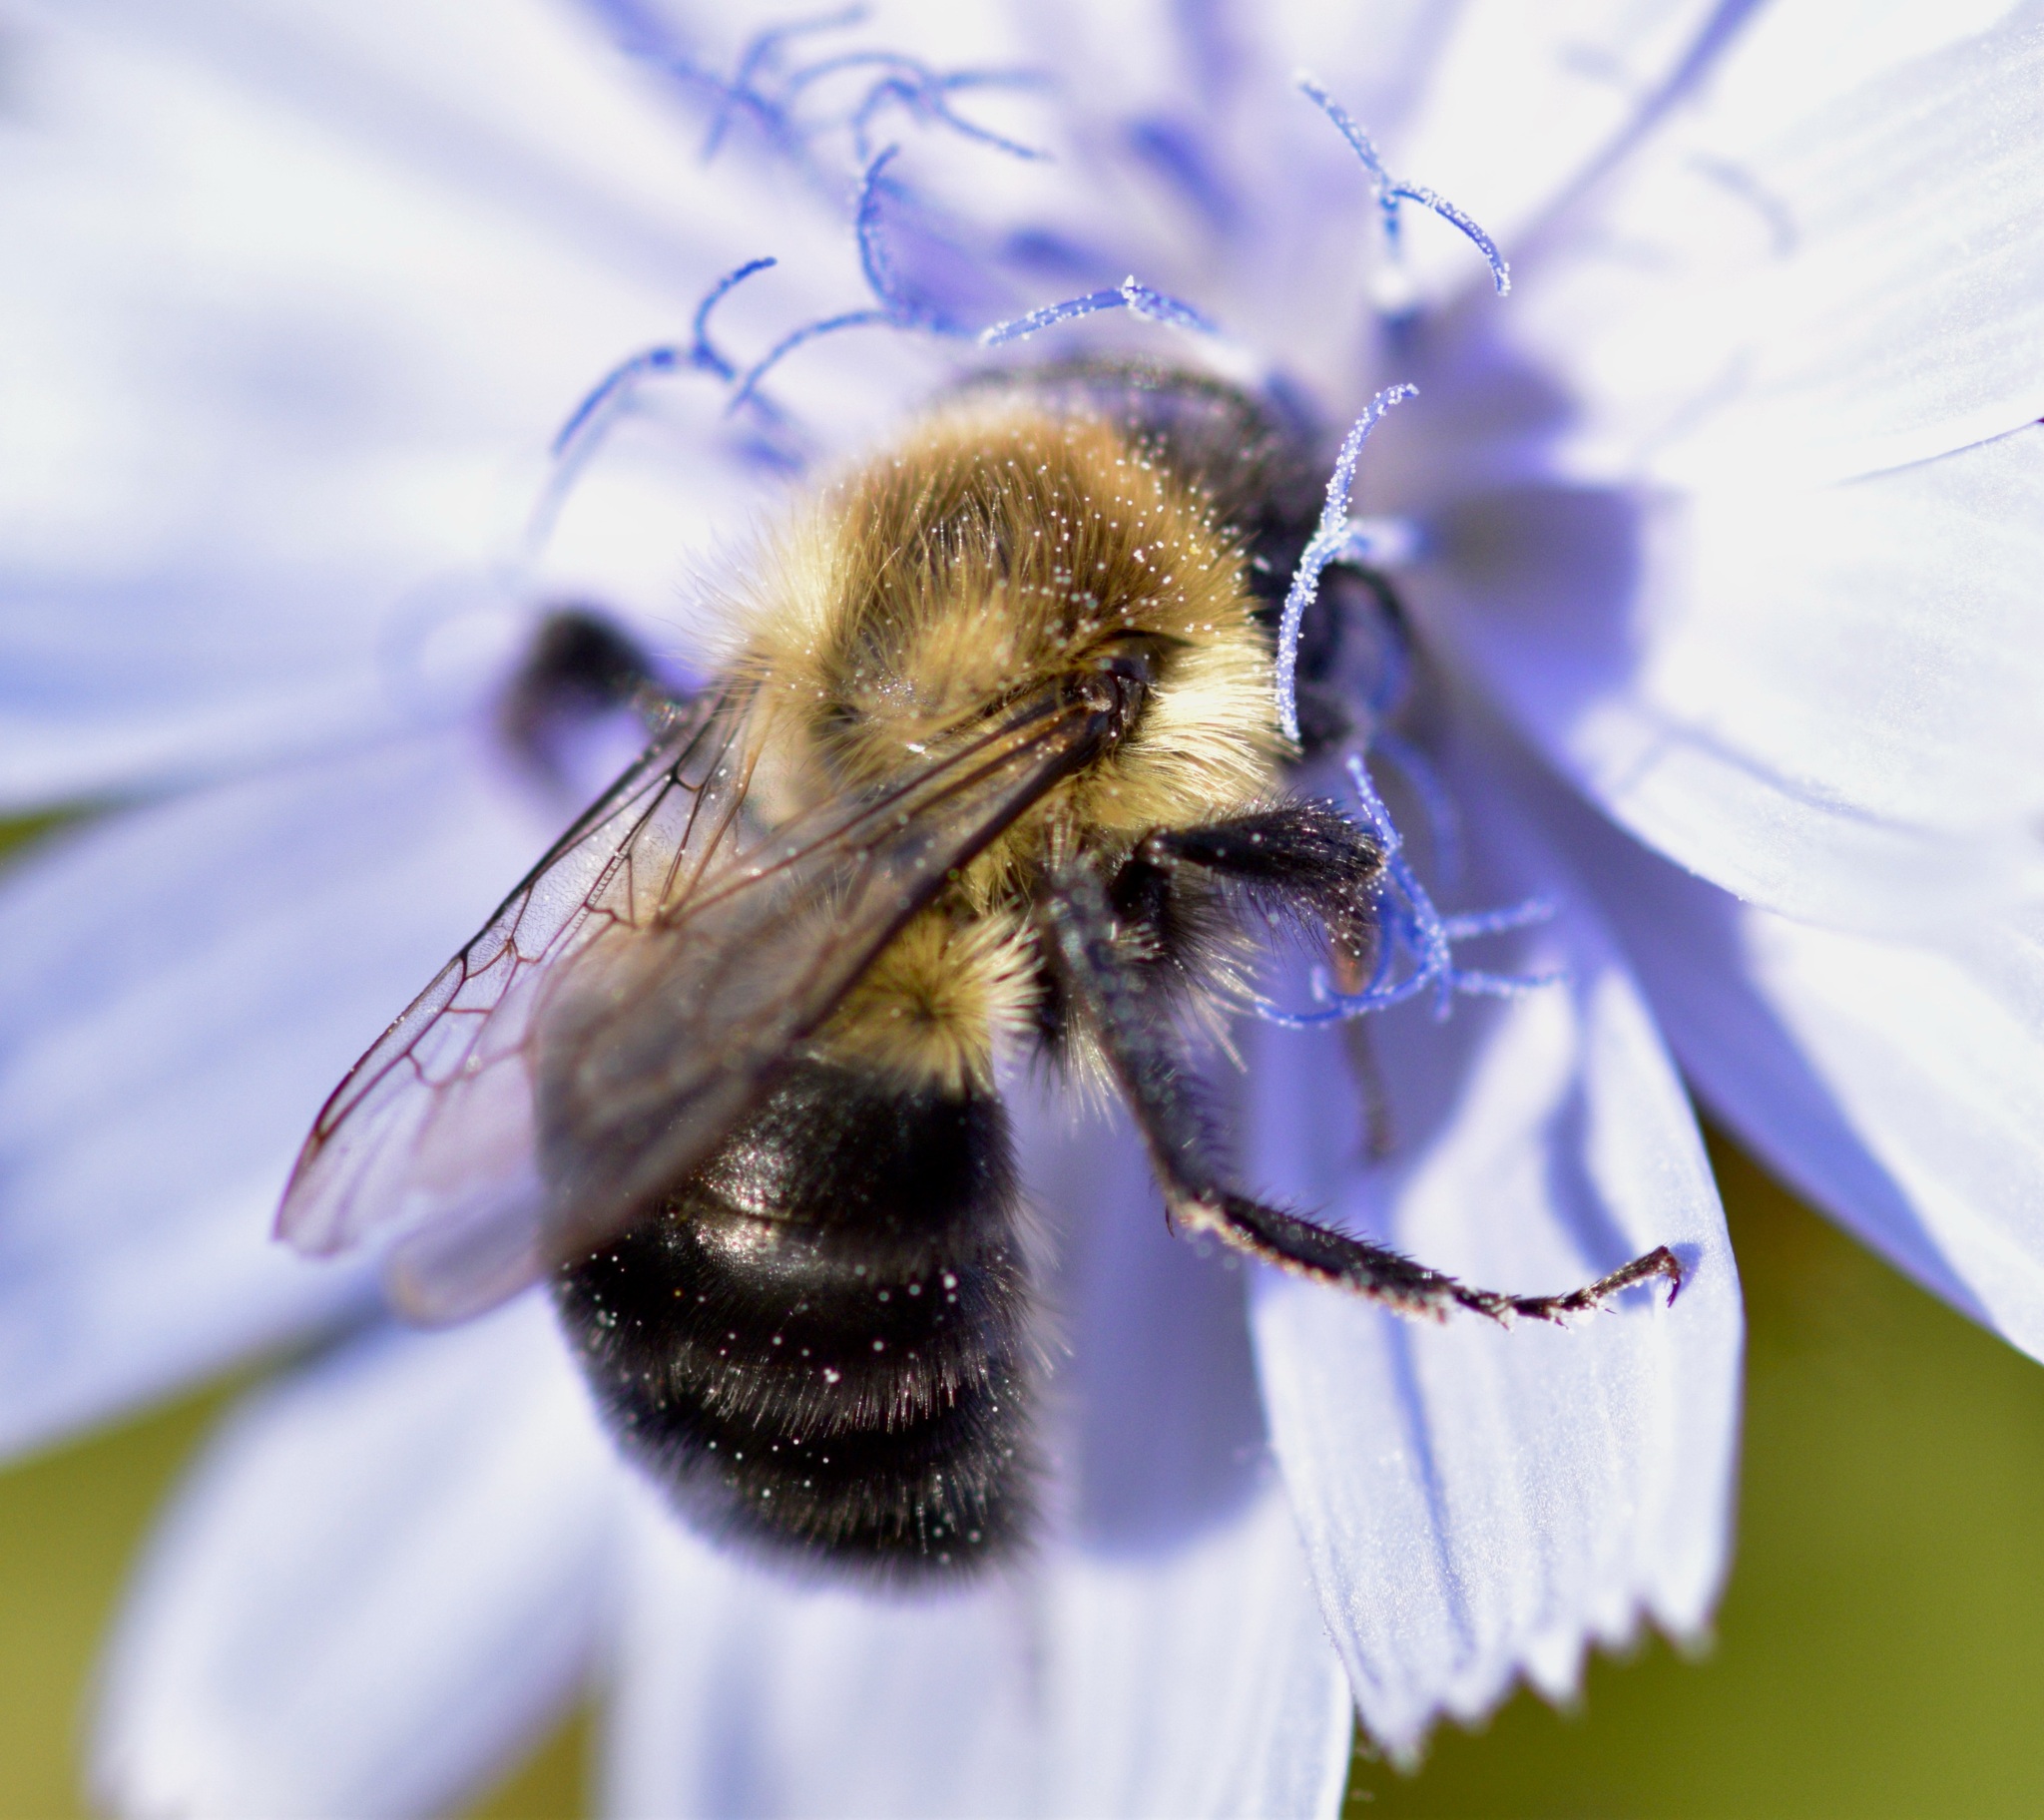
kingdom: Animalia
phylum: Arthropoda
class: Insecta
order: Hymenoptera
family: Apidae
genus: Bombus
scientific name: Bombus impatiens
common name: Common eastern bumble bee
